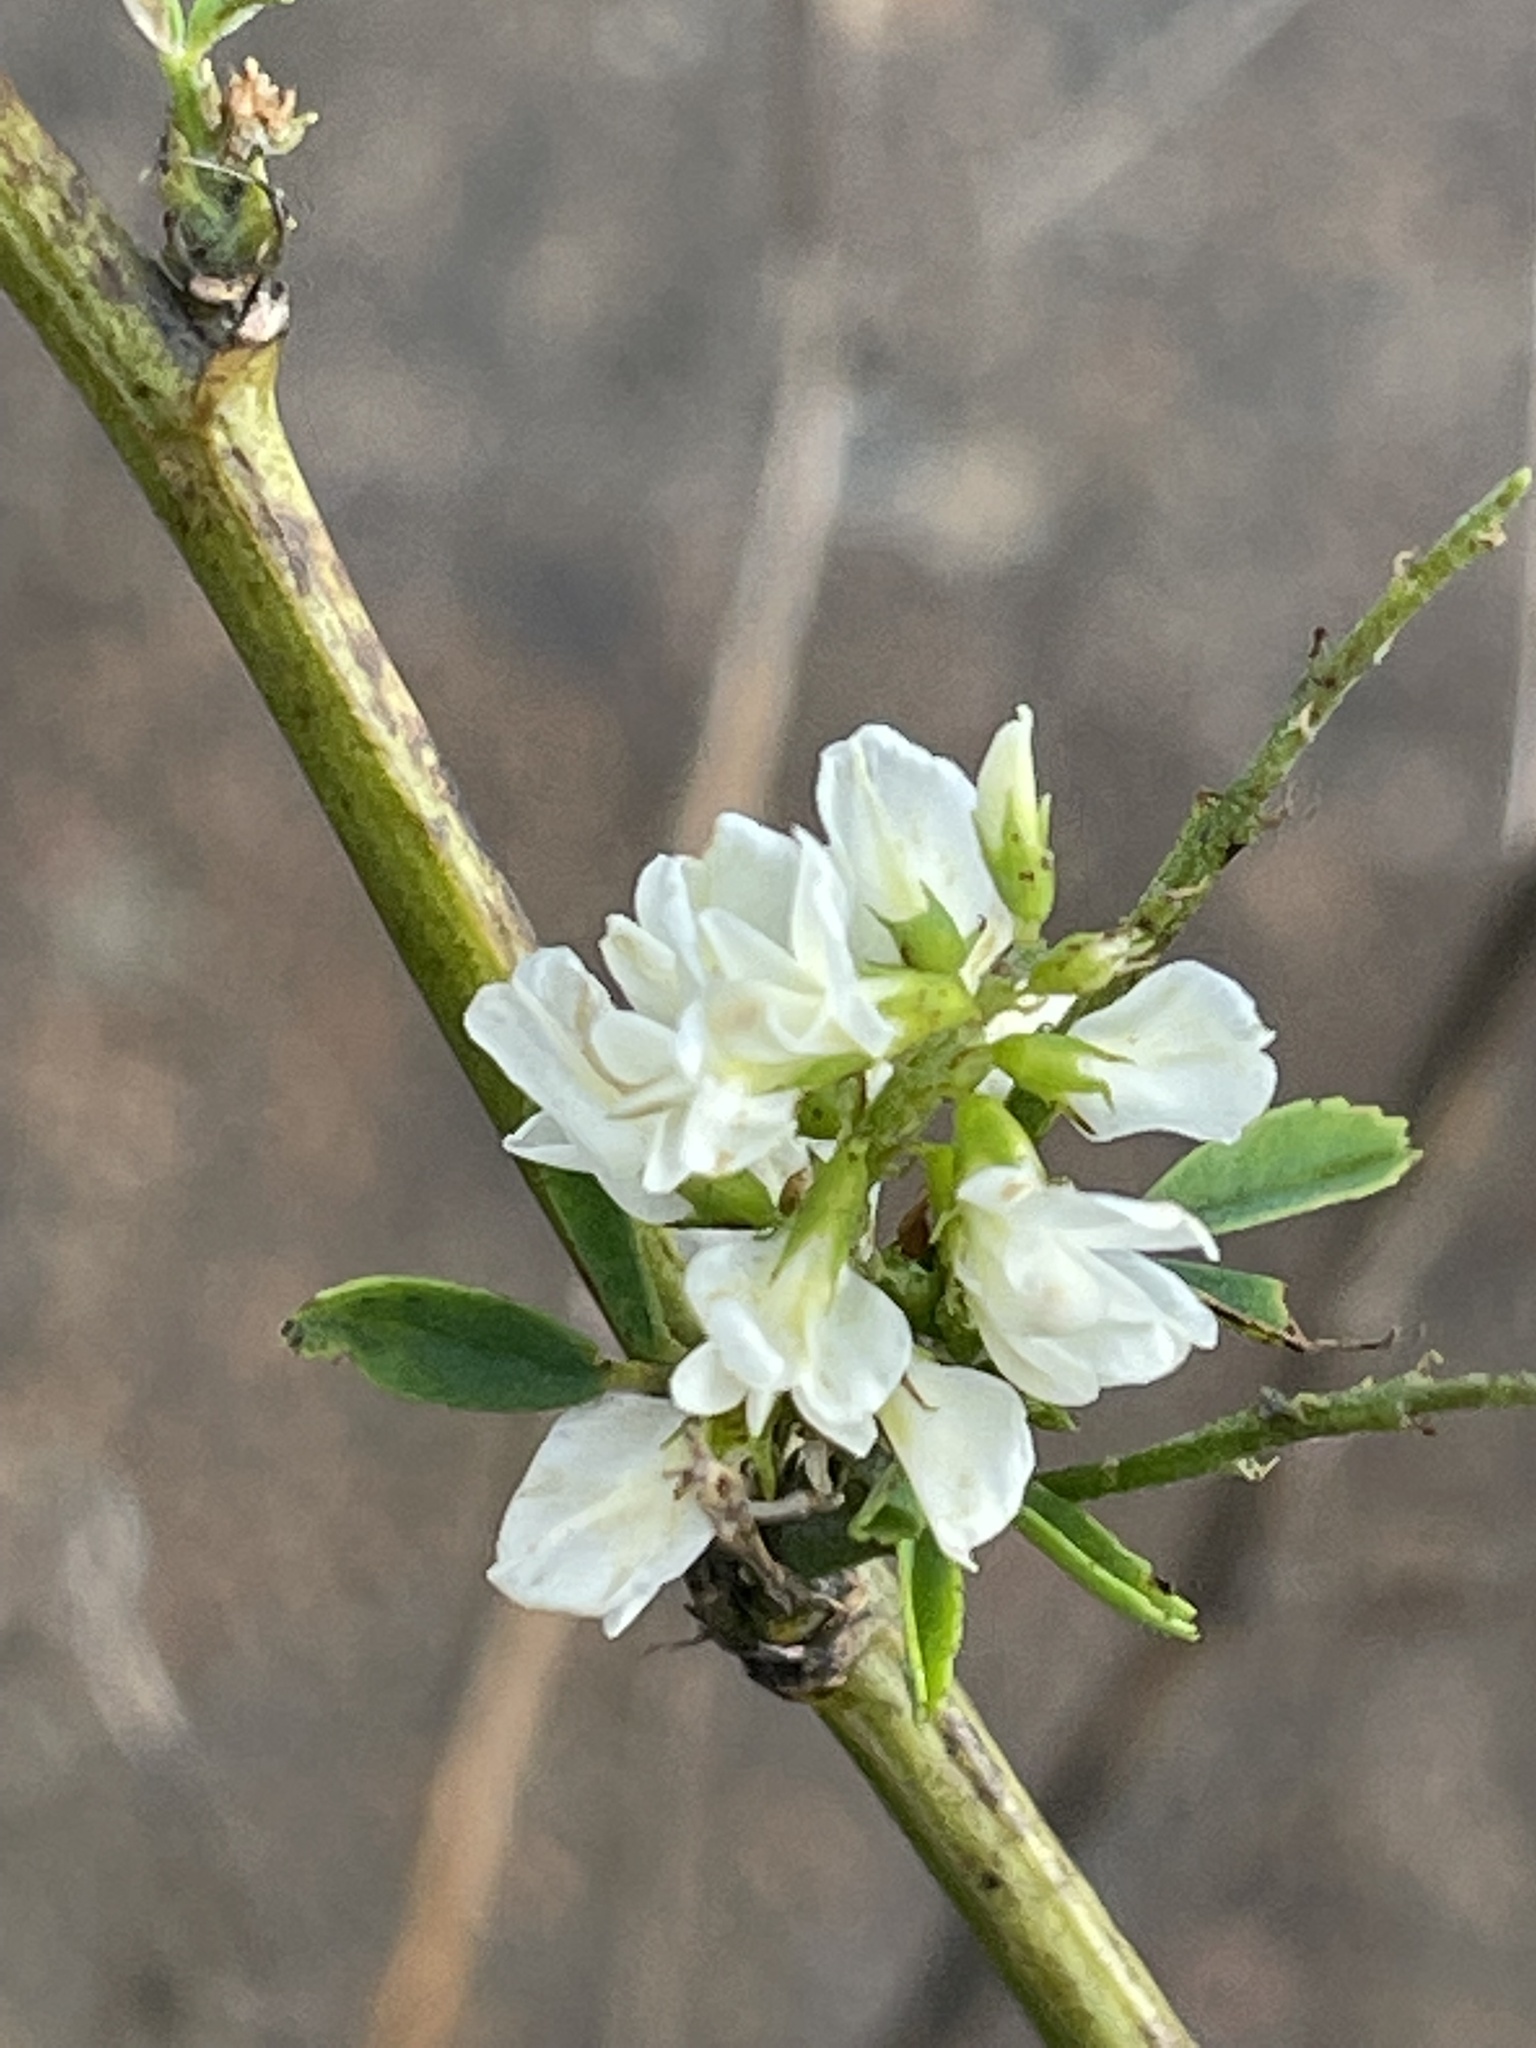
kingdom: Plantae
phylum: Tracheophyta
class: Magnoliopsida
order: Fabales
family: Fabaceae
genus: Melilotus
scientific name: Melilotus albus
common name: White melilot
